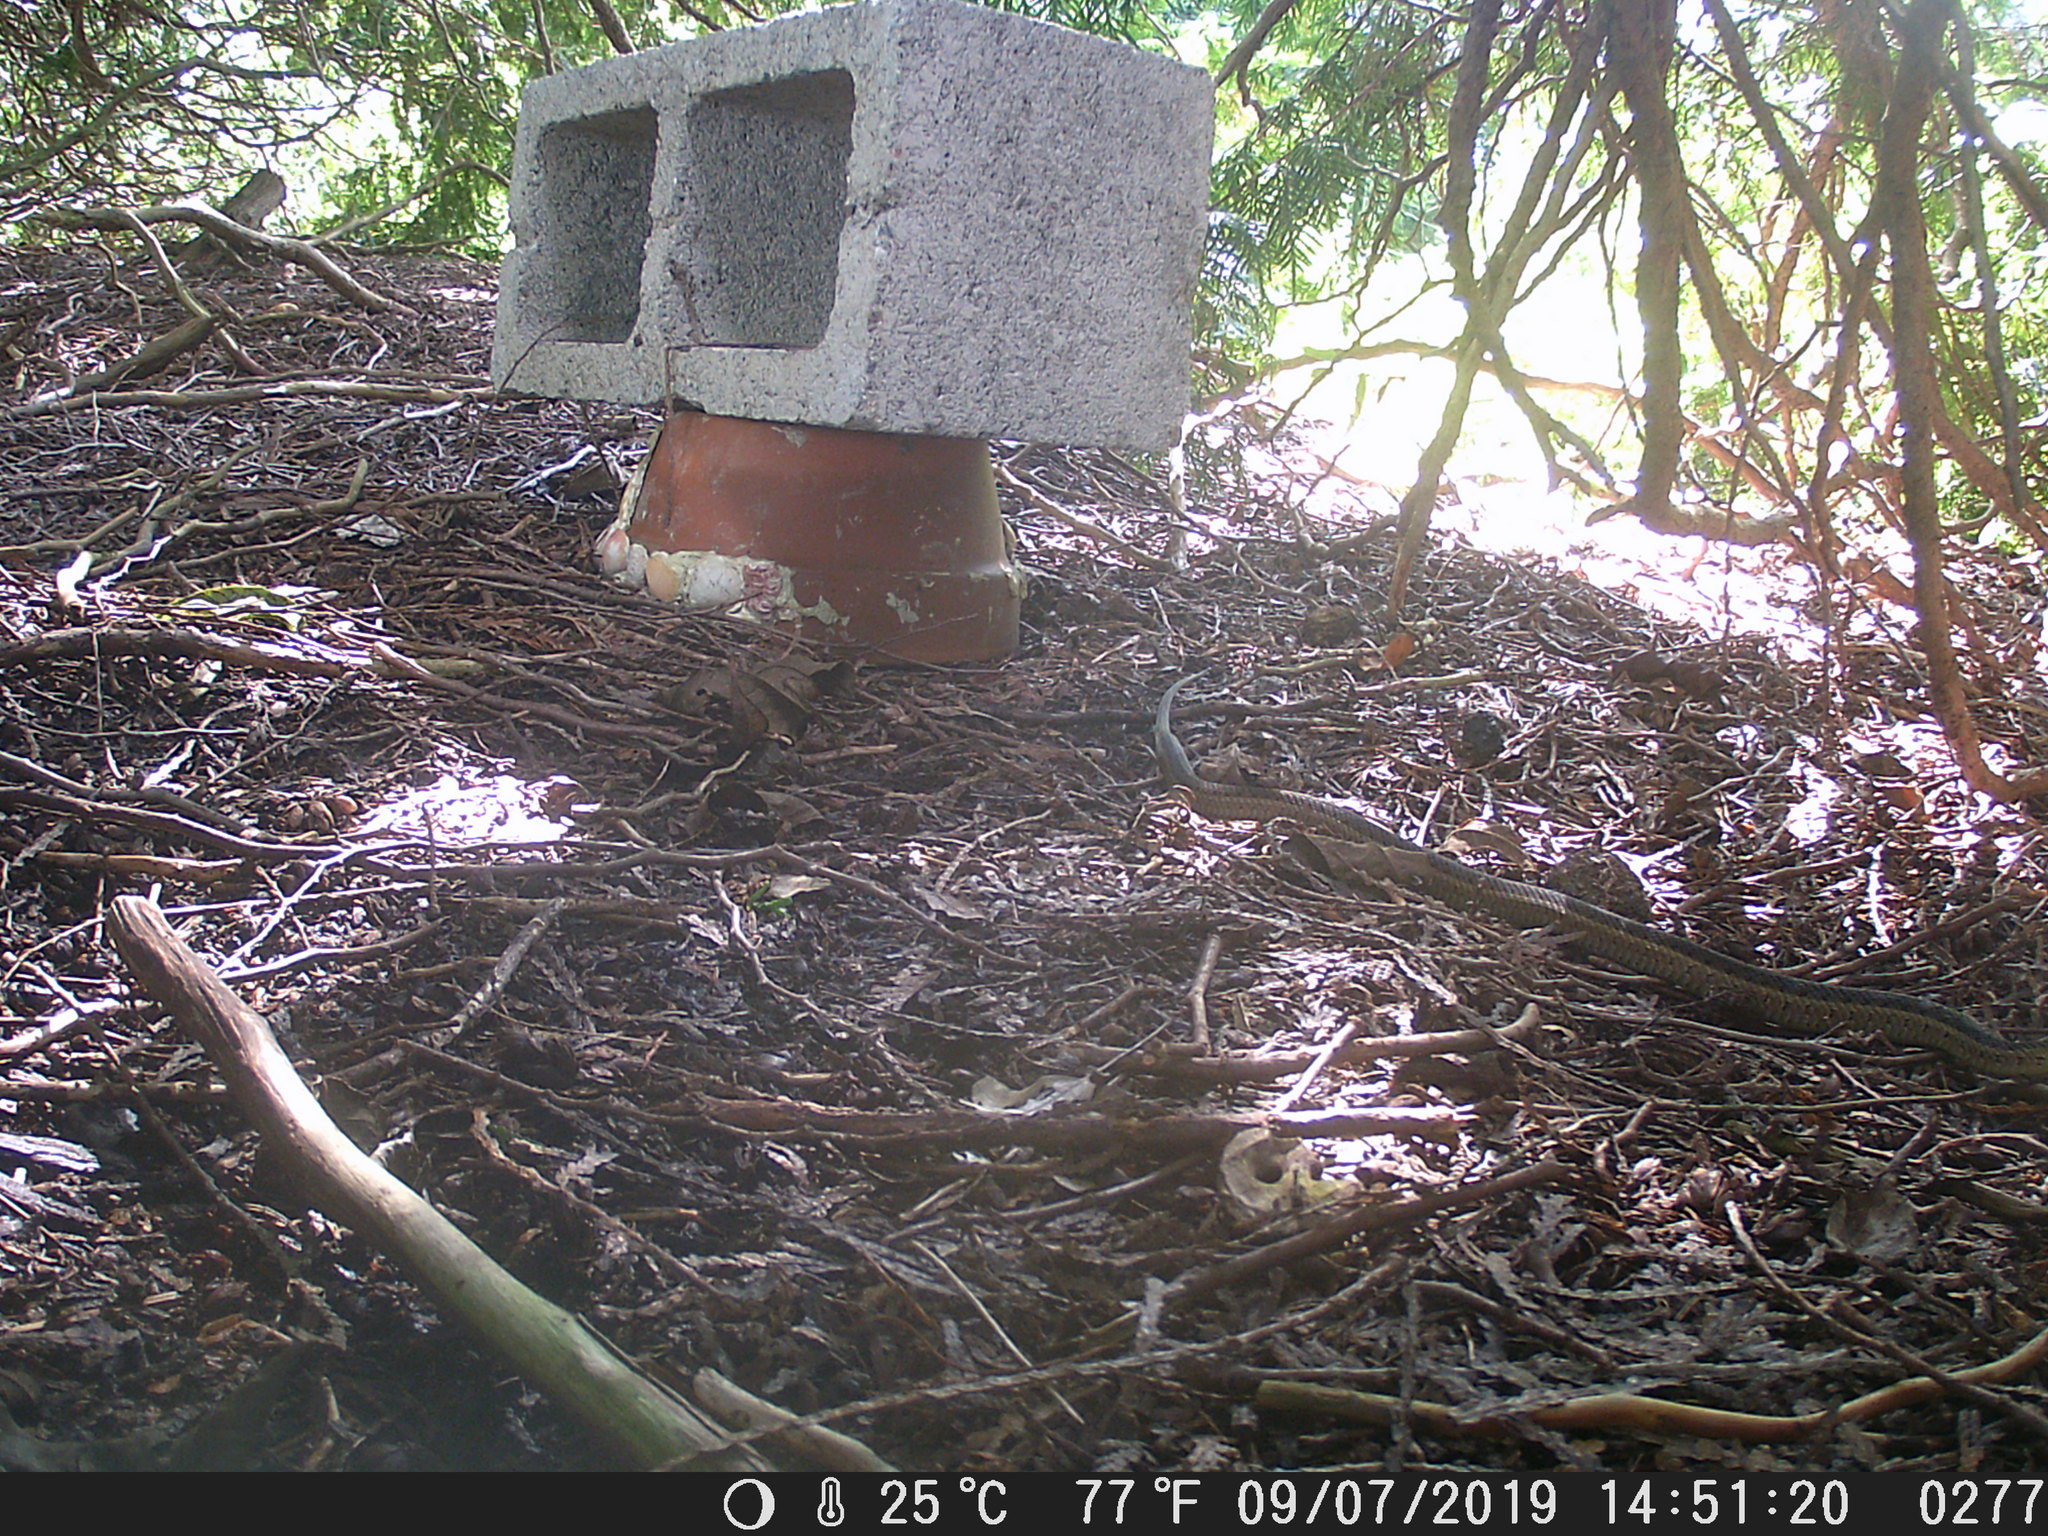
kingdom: Animalia
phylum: Chordata
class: Squamata
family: Colubridae
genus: Thamnophis
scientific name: Thamnophis sirtalis
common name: Common garter snake
